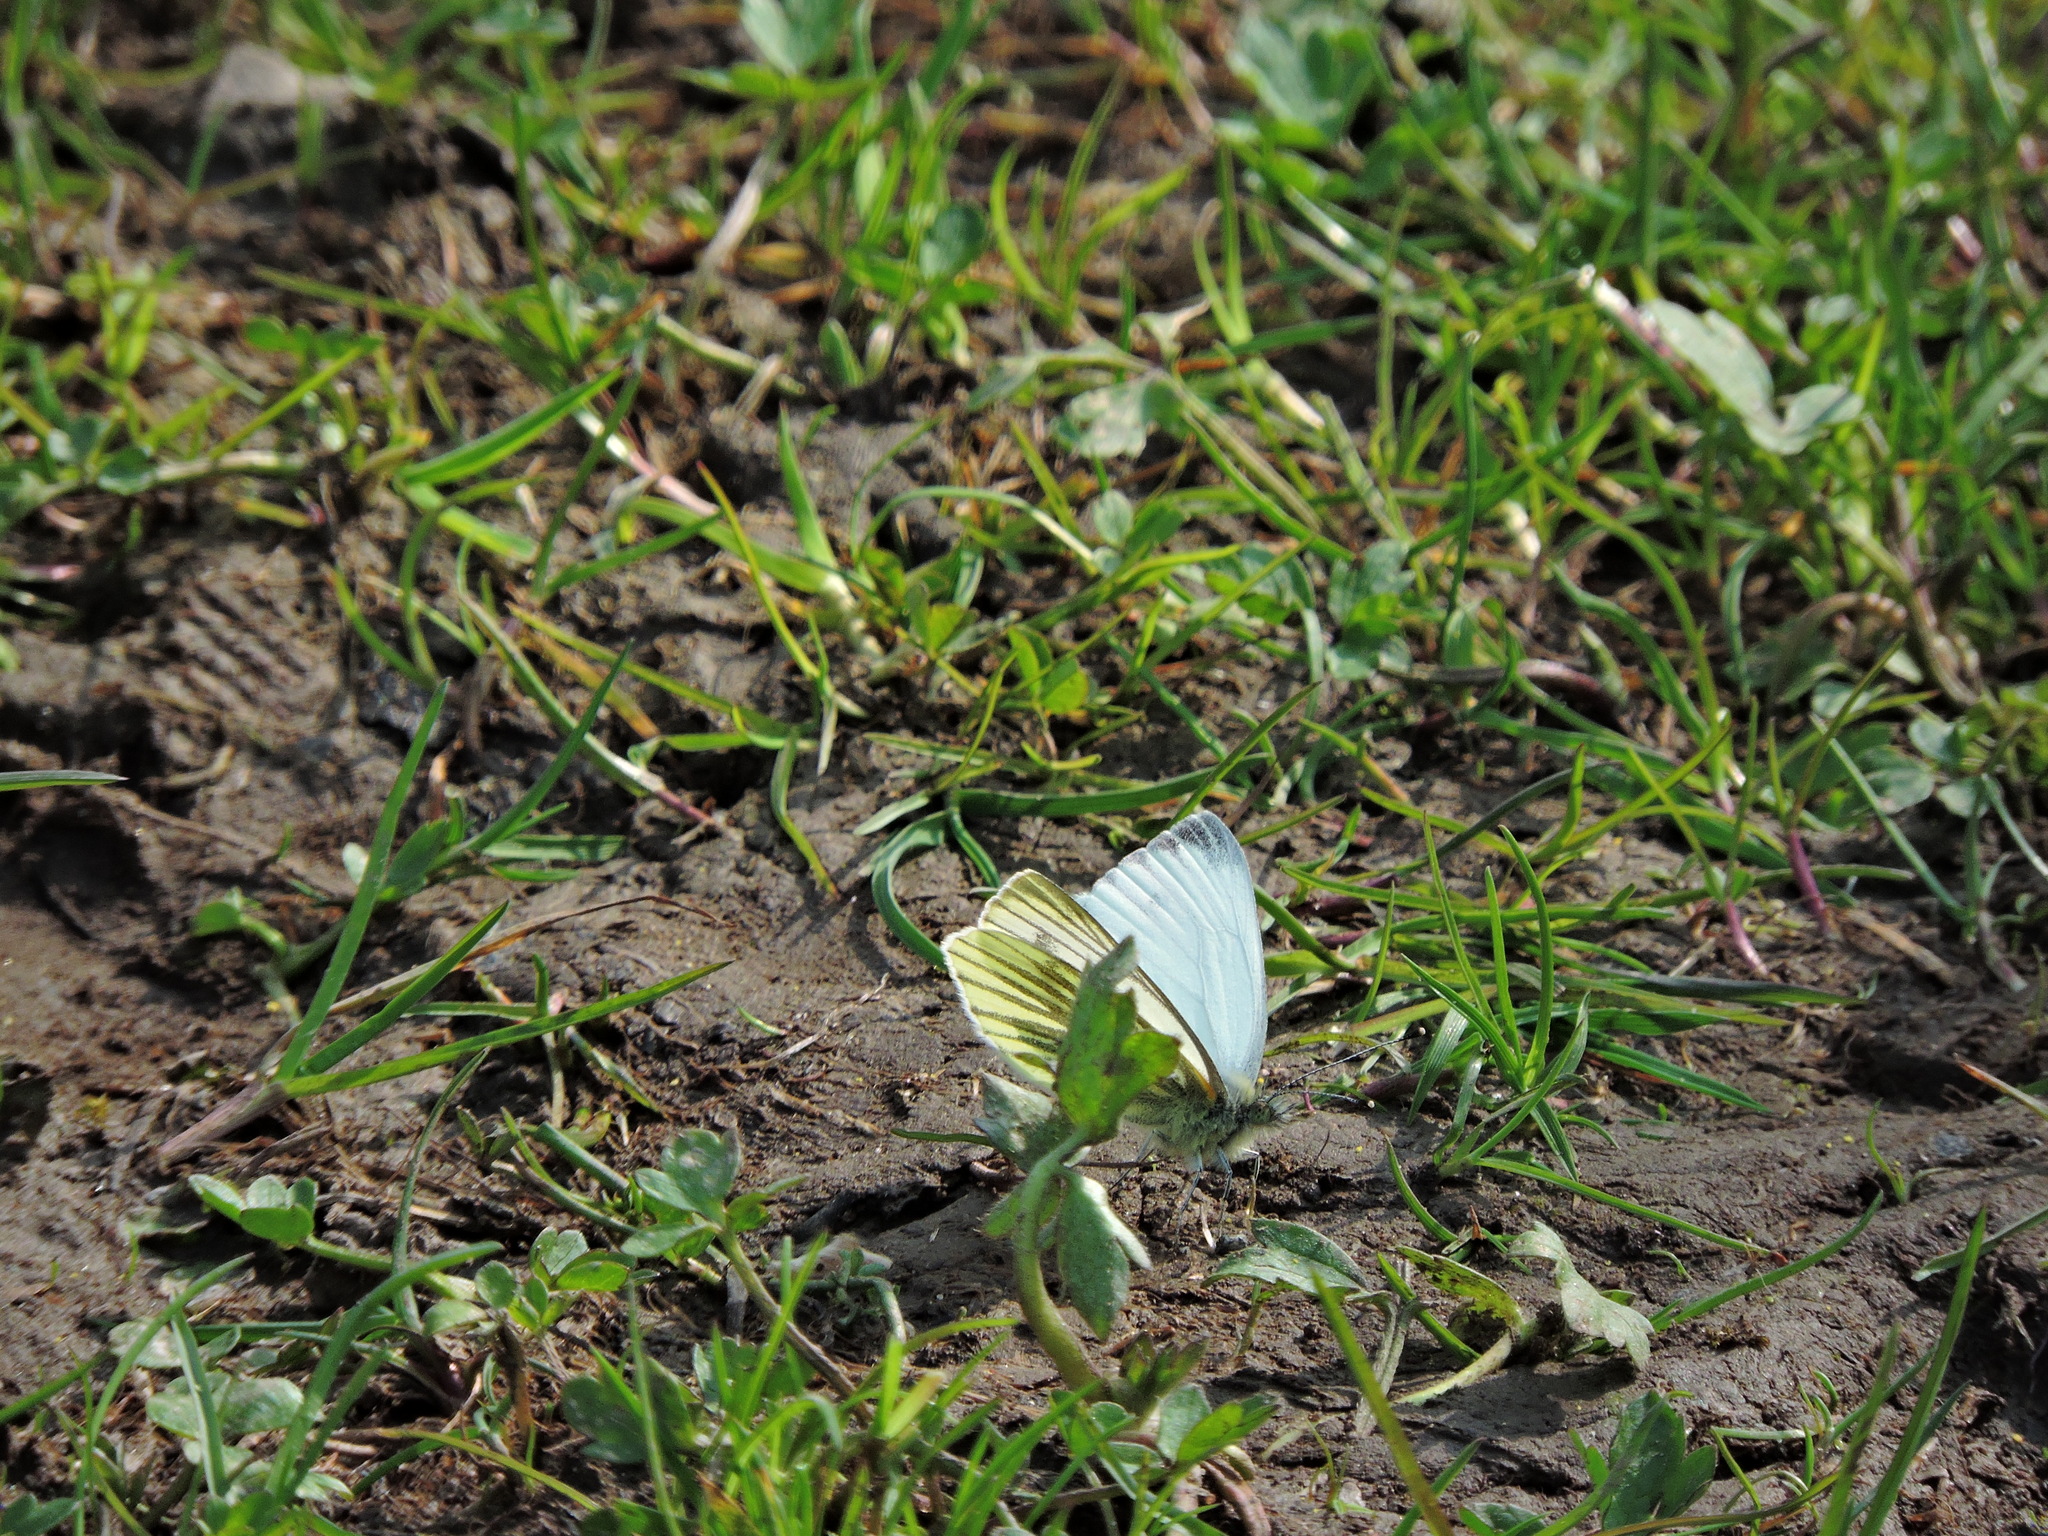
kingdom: Animalia
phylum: Arthropoda
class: Insecta
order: Lepidoptera
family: Pieridae
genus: Pieris
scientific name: Pieris napi
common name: Green-veined white
